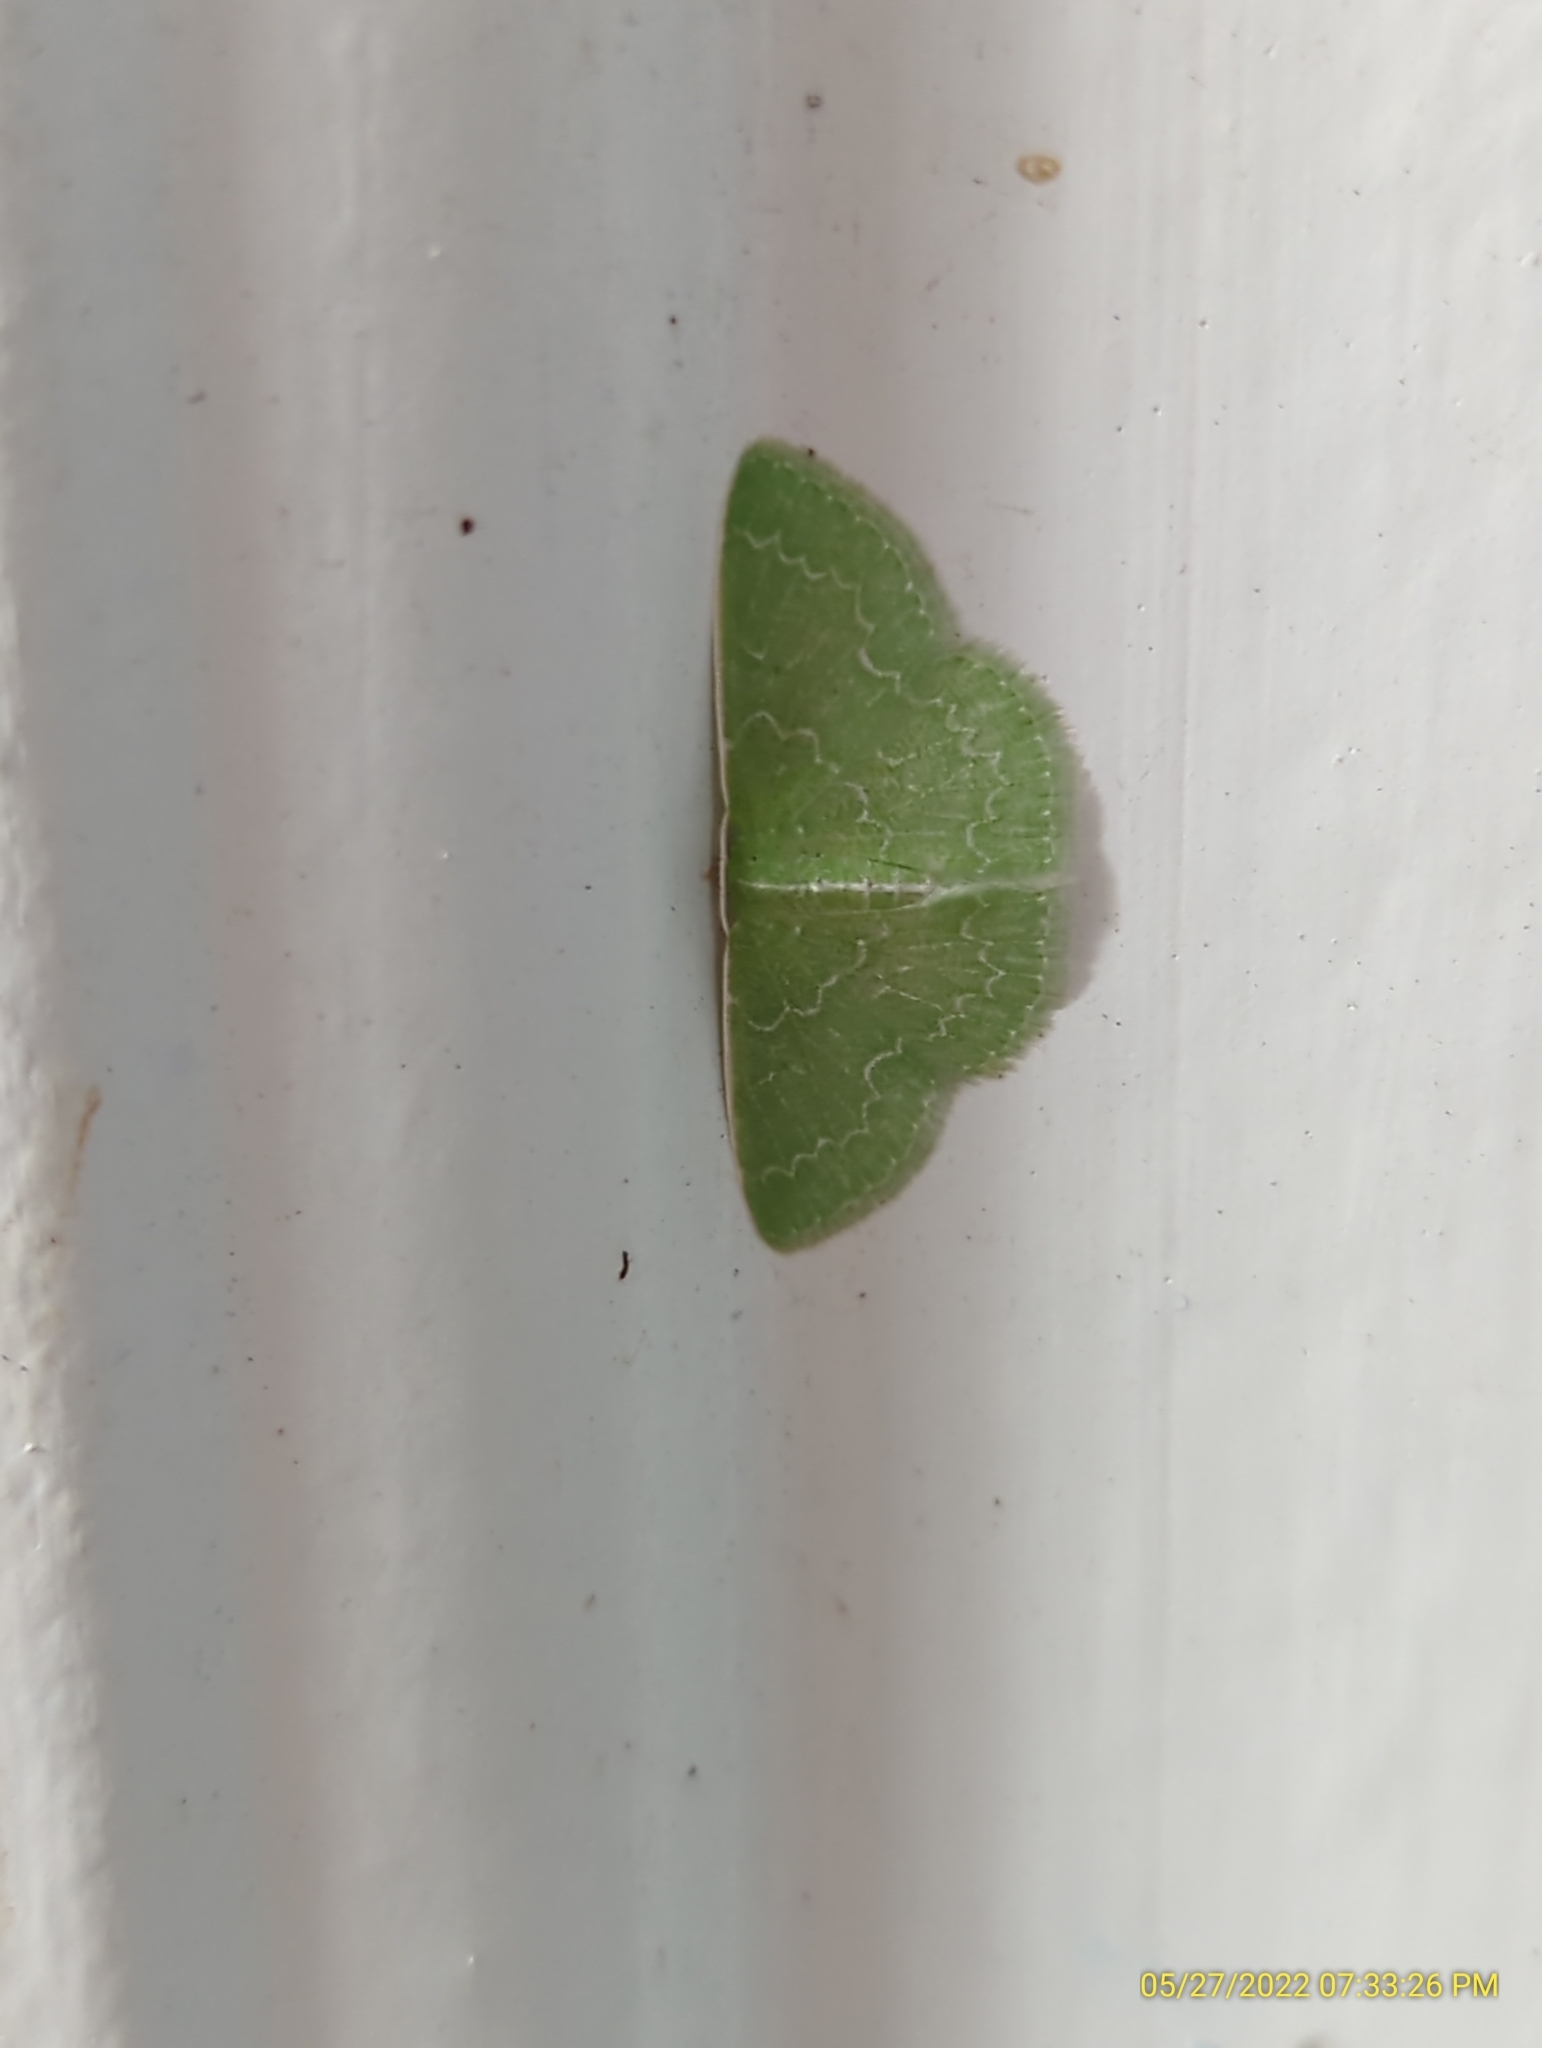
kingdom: Animalia
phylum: Arthropoda
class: Insecta
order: Lepidoptera
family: Geometridae
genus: Synchlora
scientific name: Synchlora frondaria
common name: Southern emerald
